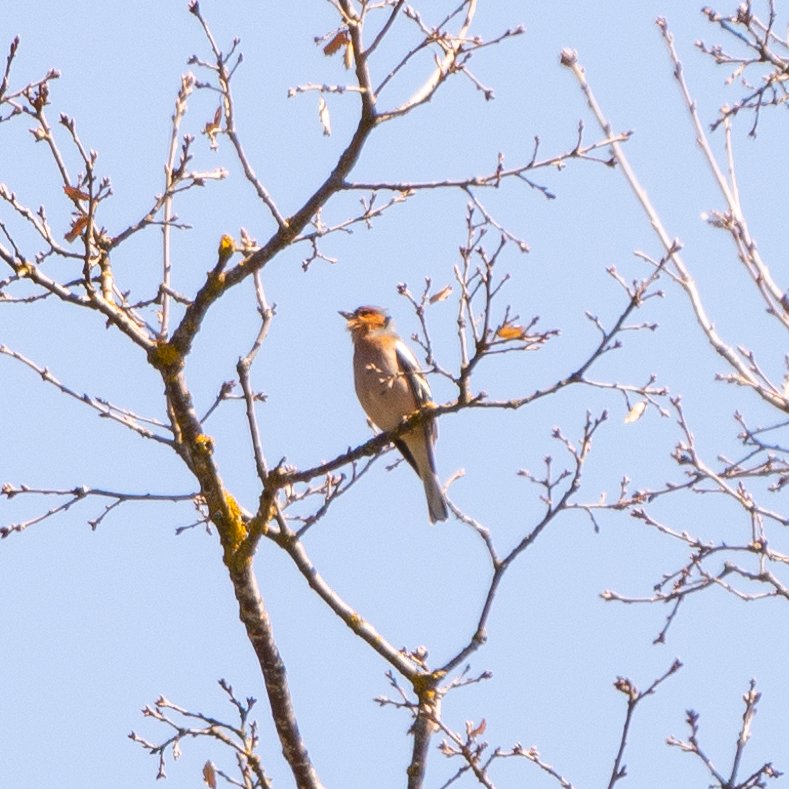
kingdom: Animalia
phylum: Chordata
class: Aves
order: Passeriformes
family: Fringillidae
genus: Fringilla
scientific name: Fringilla coelebs
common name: Common chaffinch
